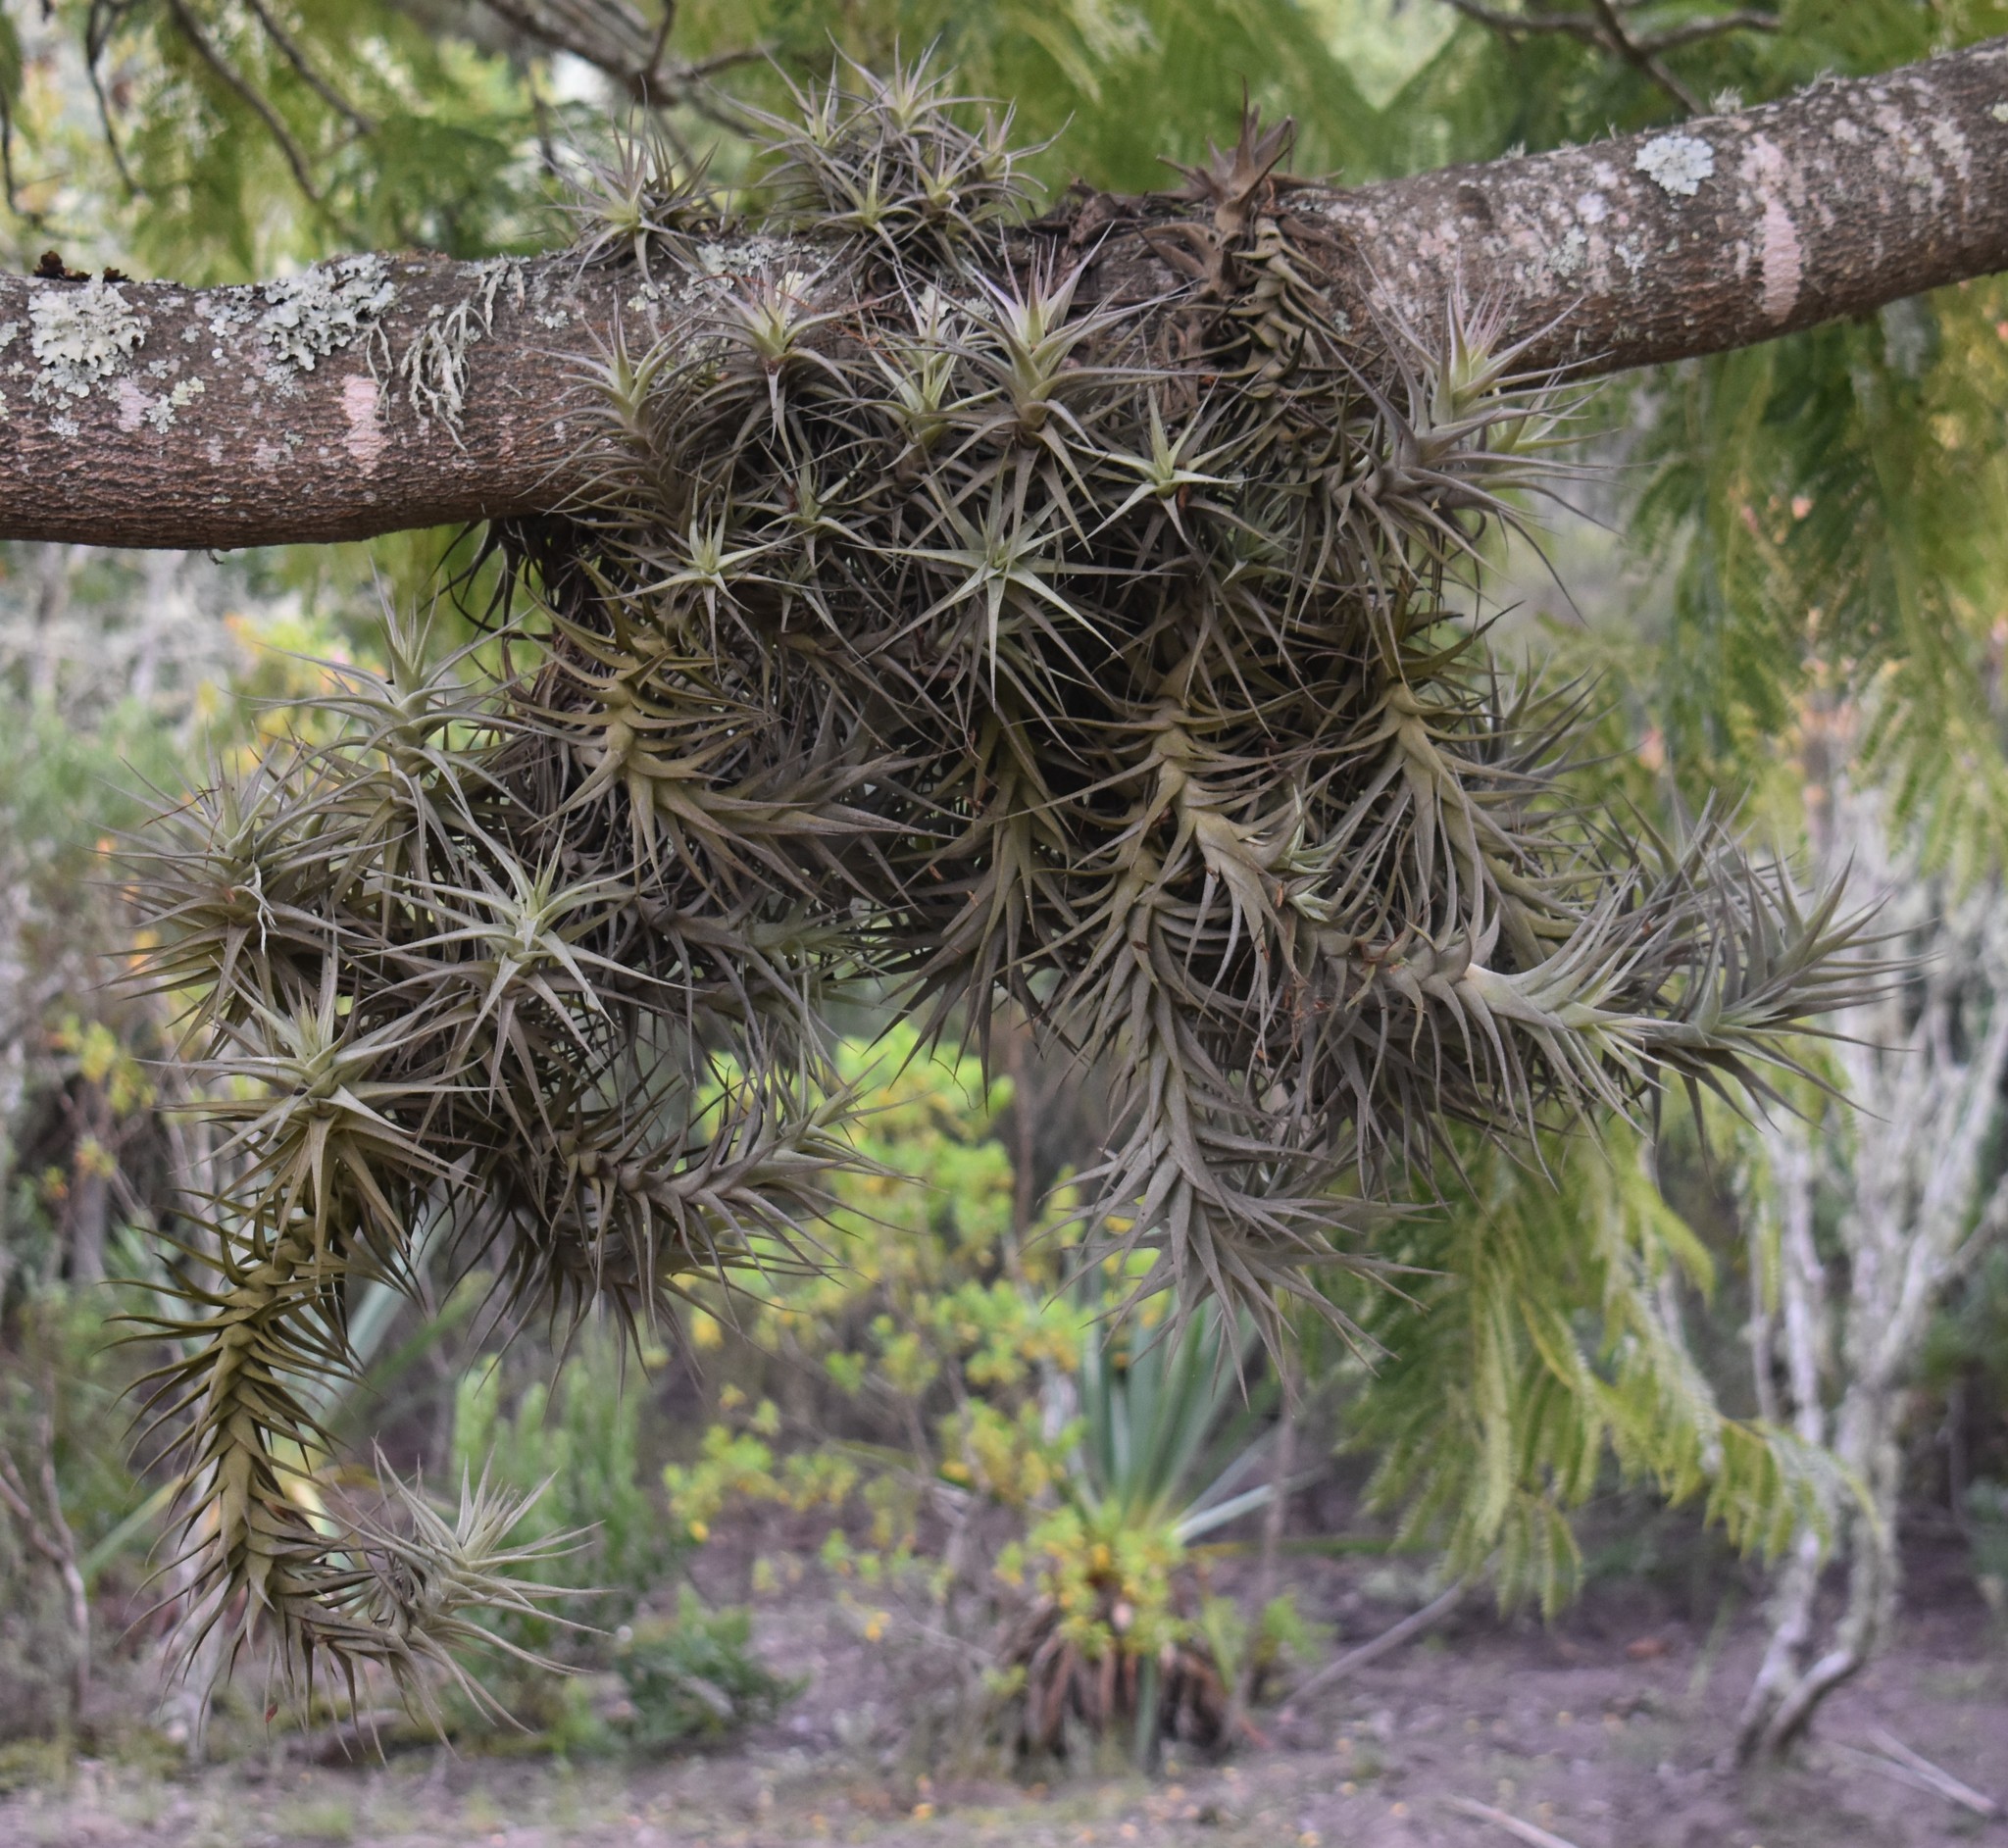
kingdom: Plantae
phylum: Tracheophyta
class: Liliopsida
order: Poales
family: Bromeliaceae
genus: Tillandsia
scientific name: Tillandsia bergeri
